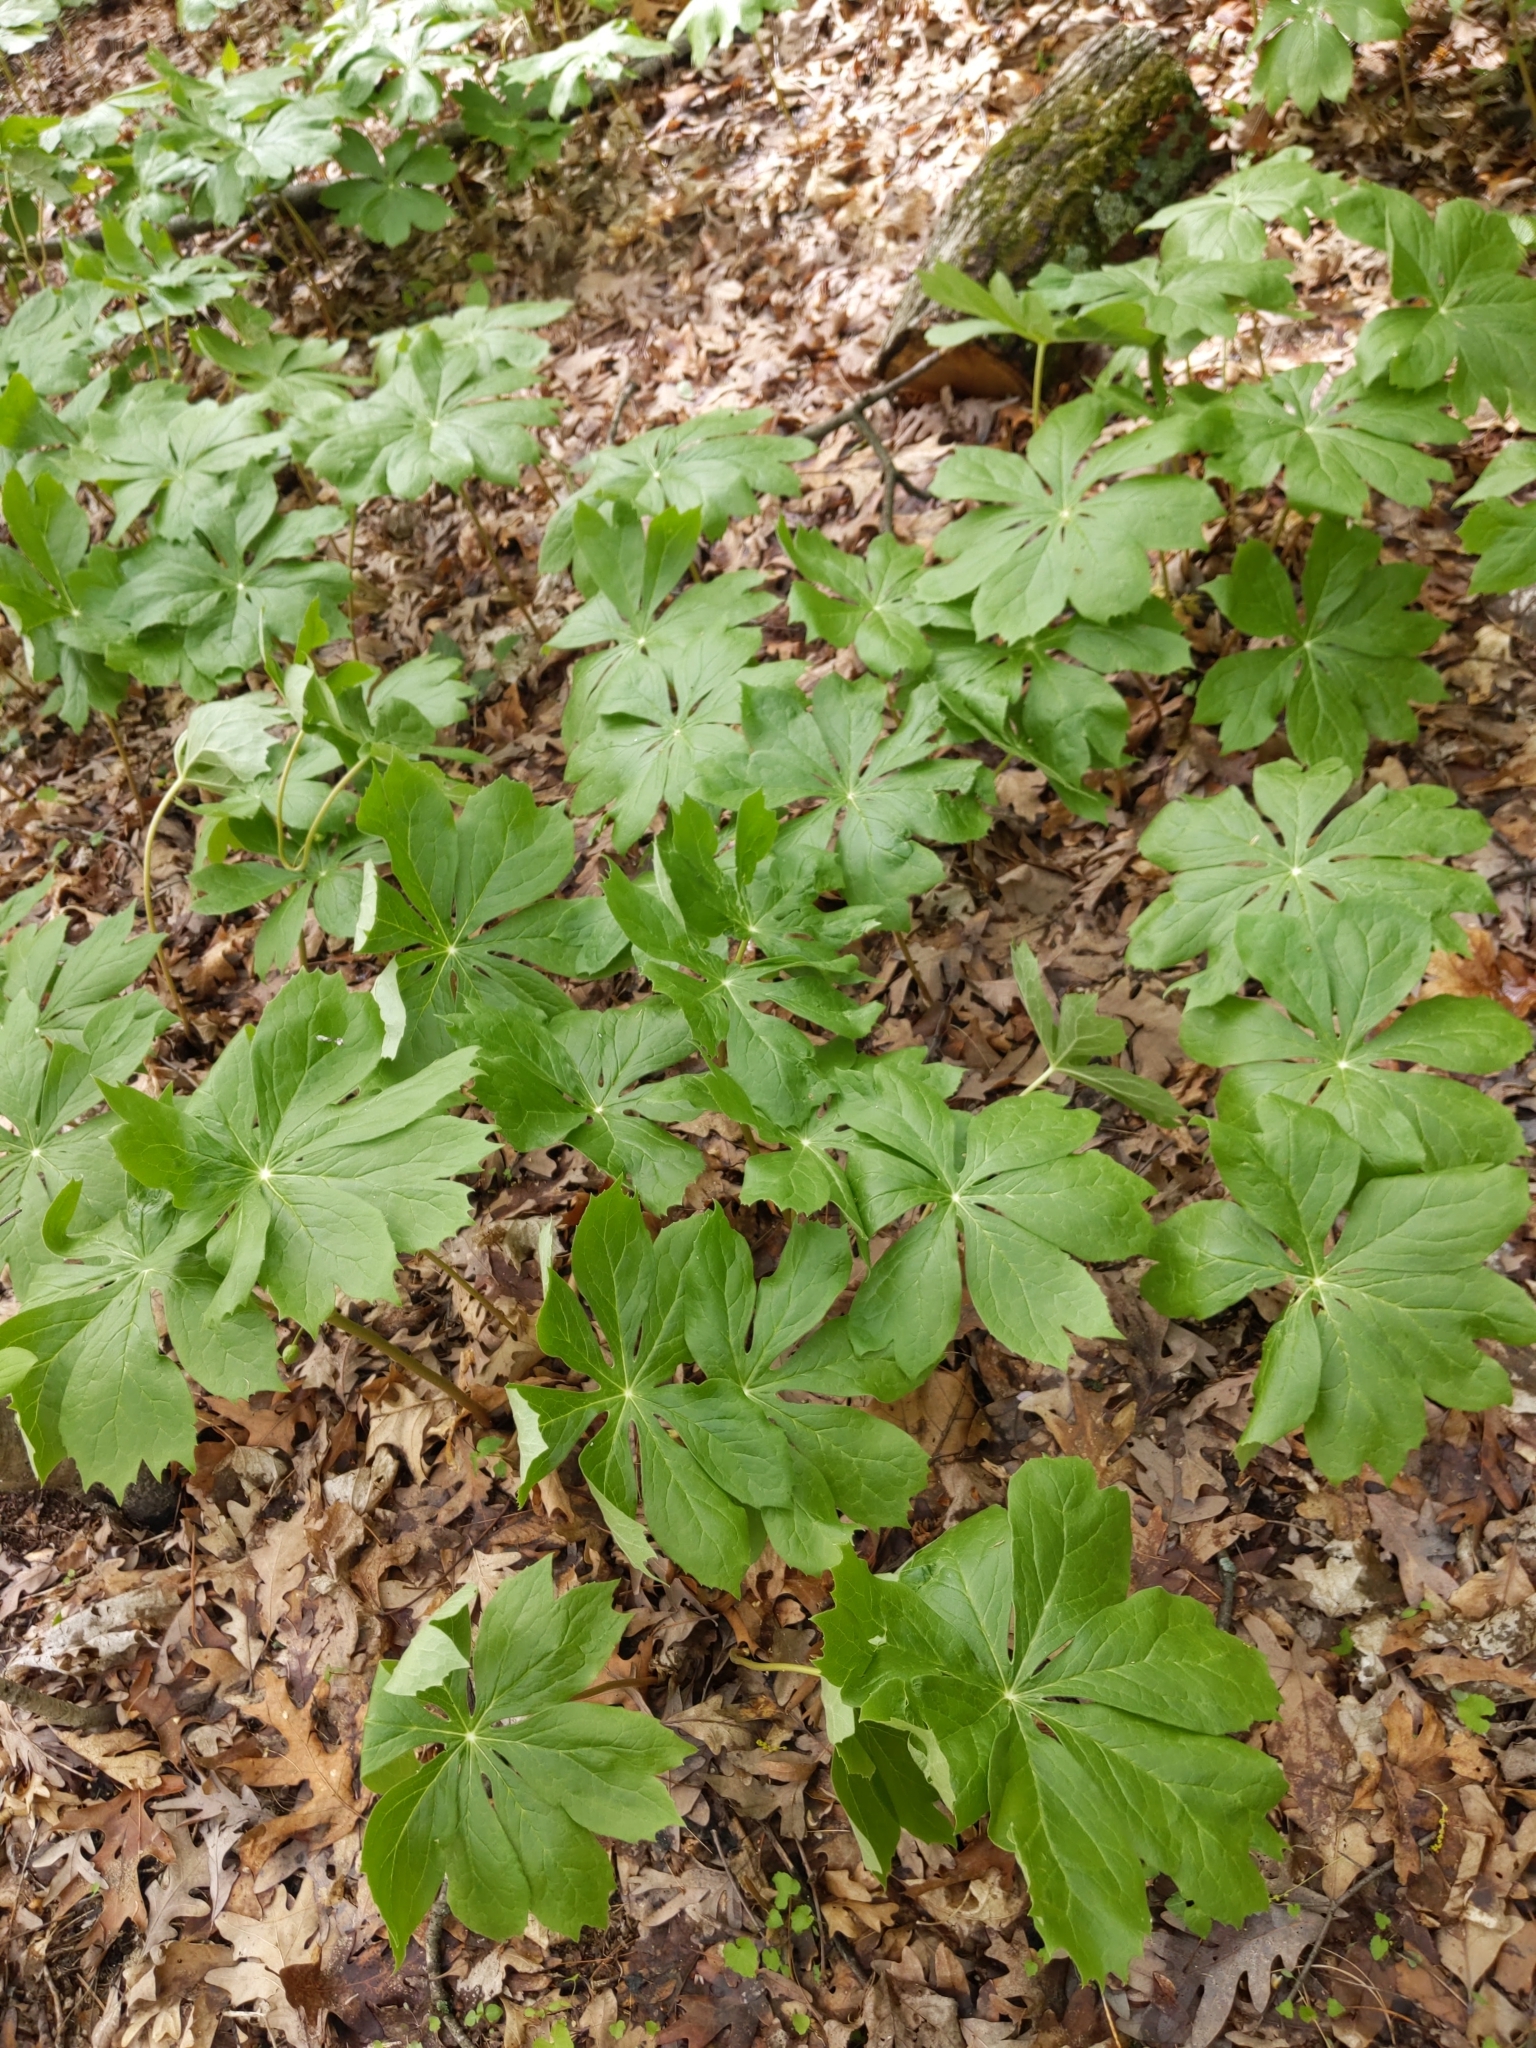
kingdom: Plantae
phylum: Tracheophyta
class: Magnoliopsida
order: Ranunculales
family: Berberidaceae
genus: Podophyllum
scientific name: Podophyllum peltatum
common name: Wild mandrake
